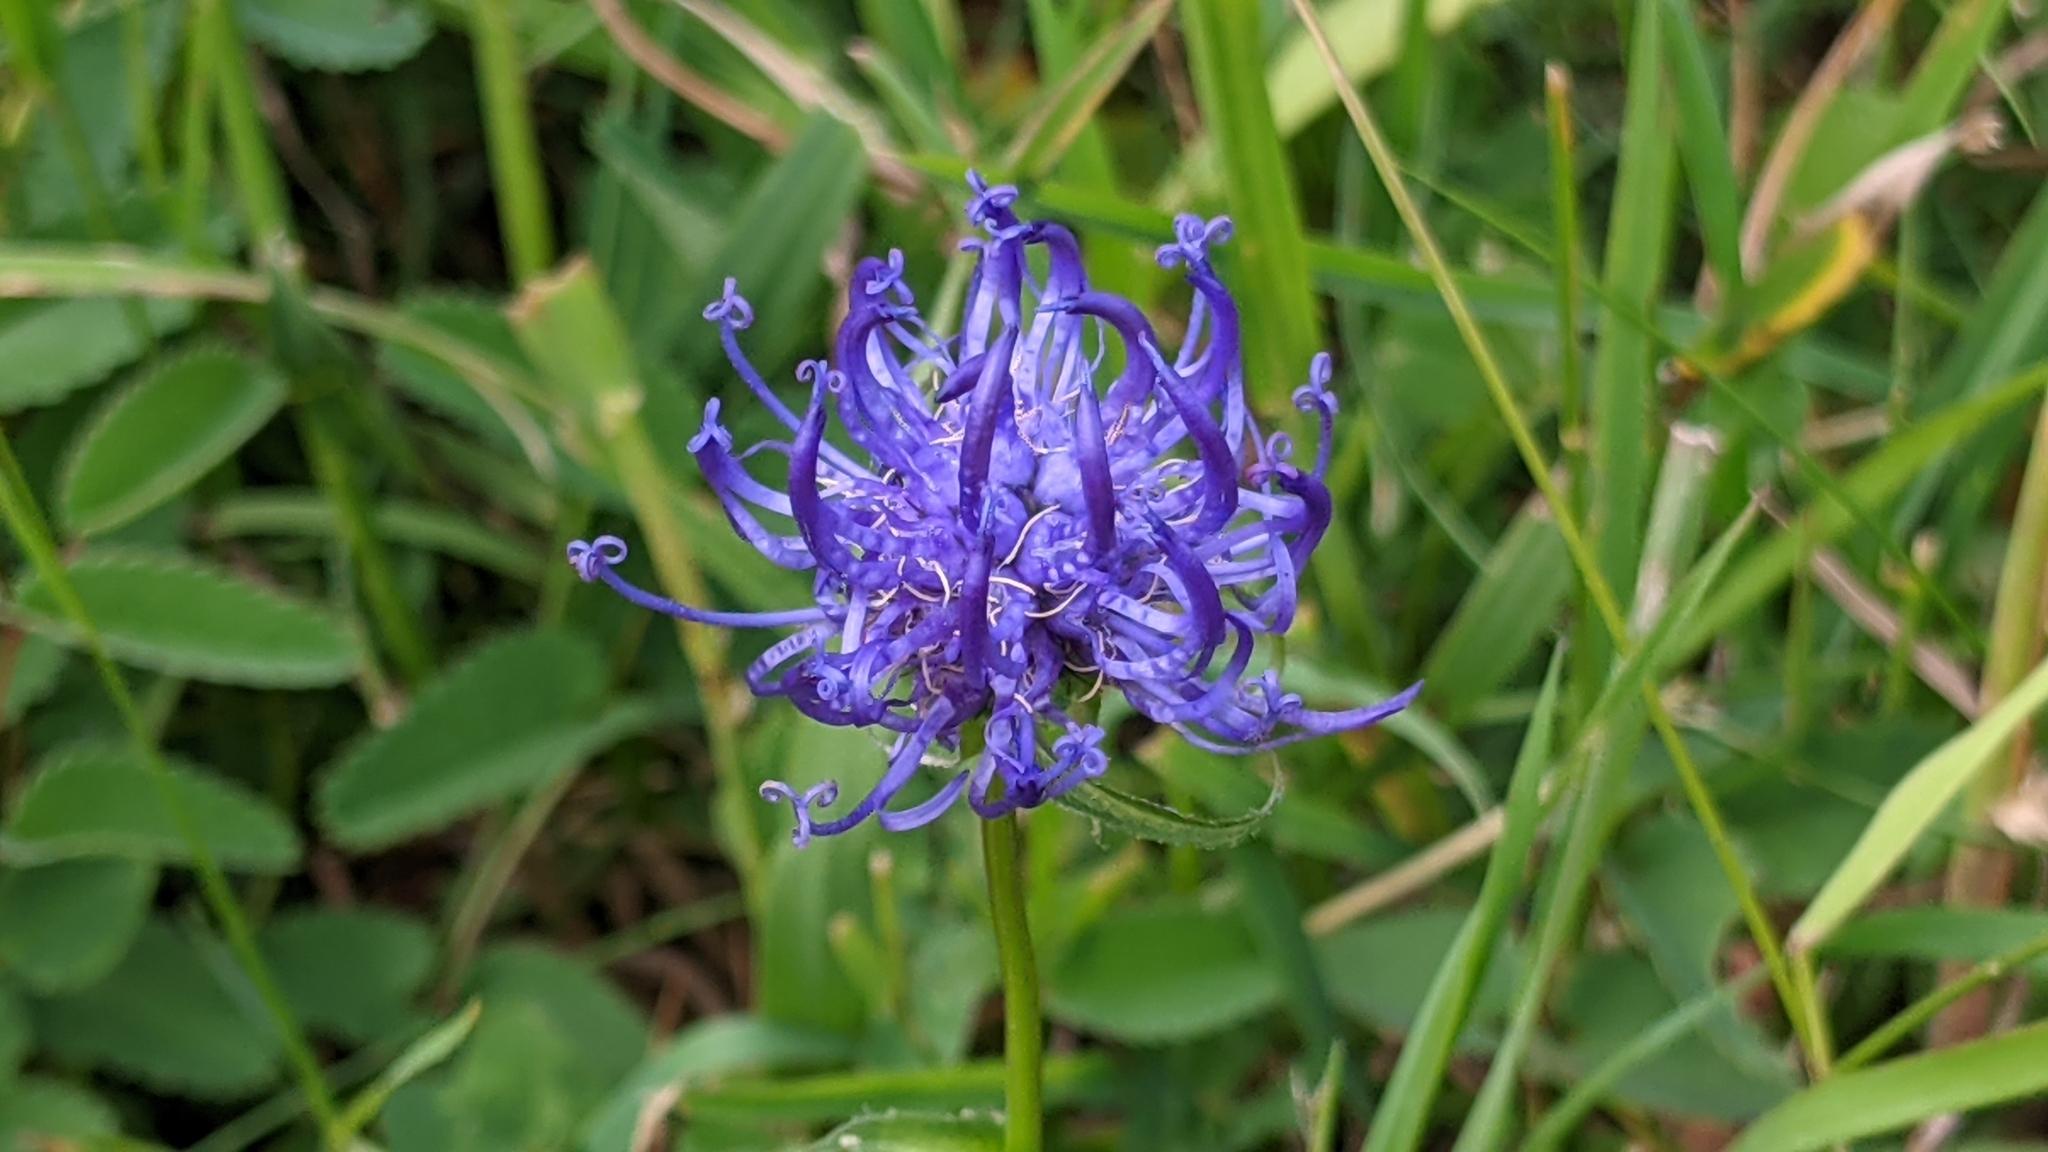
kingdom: Plantae
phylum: Tracheophyta
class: Magnoliopsida
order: Asterales
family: Campanulaceae
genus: Phyteuma
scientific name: Phyteuma orbiculare
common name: Round-headed rampion
